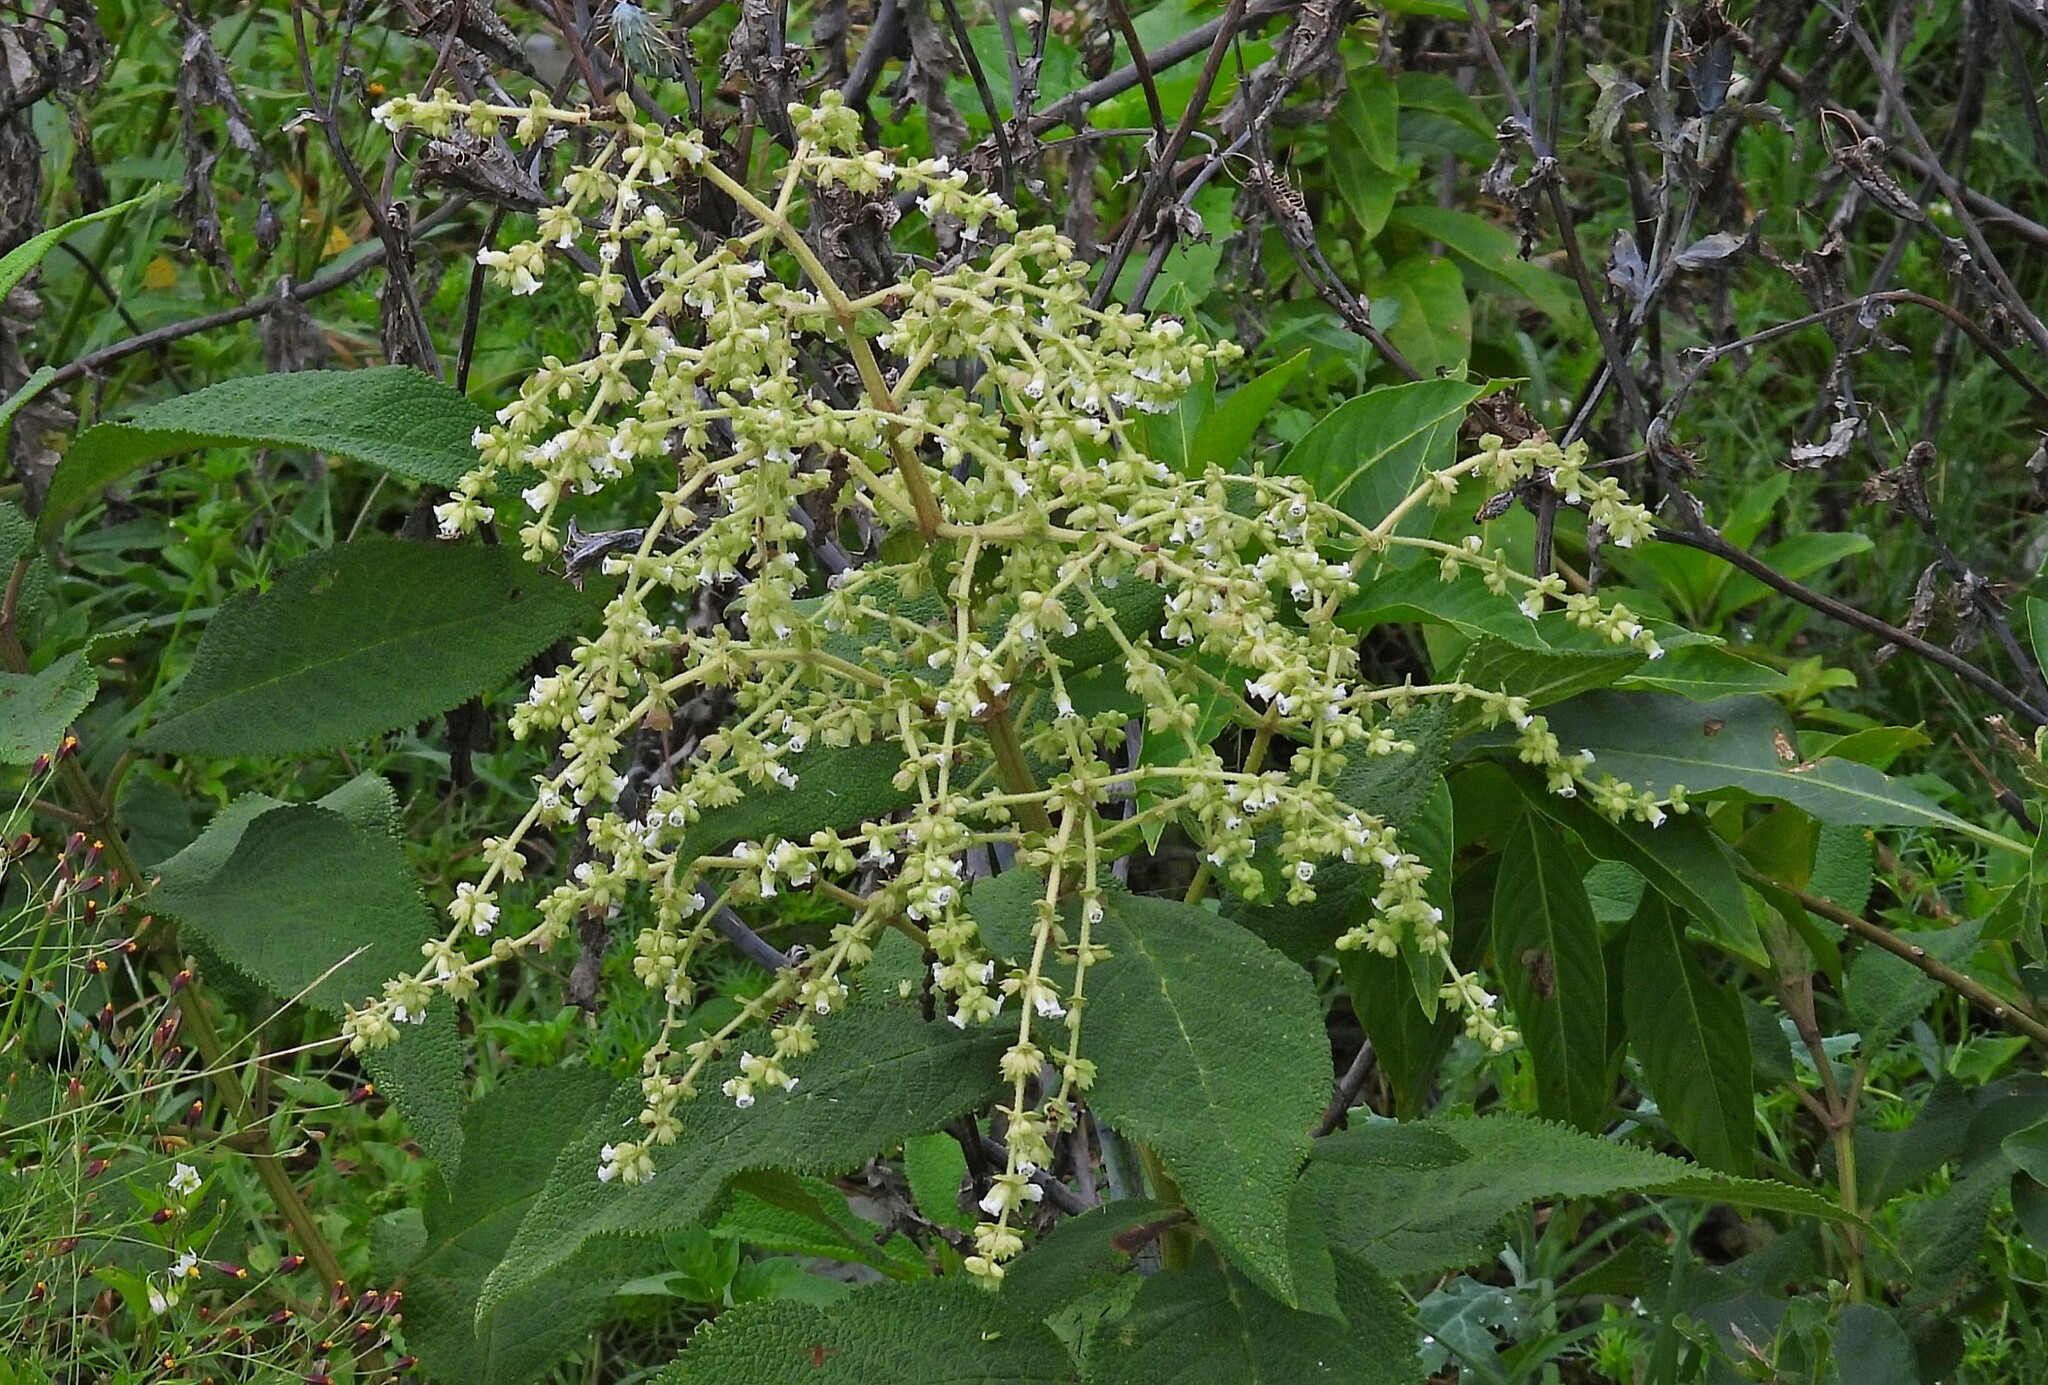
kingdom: Plantae
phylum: Tracheophyta
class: Magnoliopsida
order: Lamiales
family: Lamiaceae
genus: Lepechinia
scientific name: Lepechinia vesiculosa
